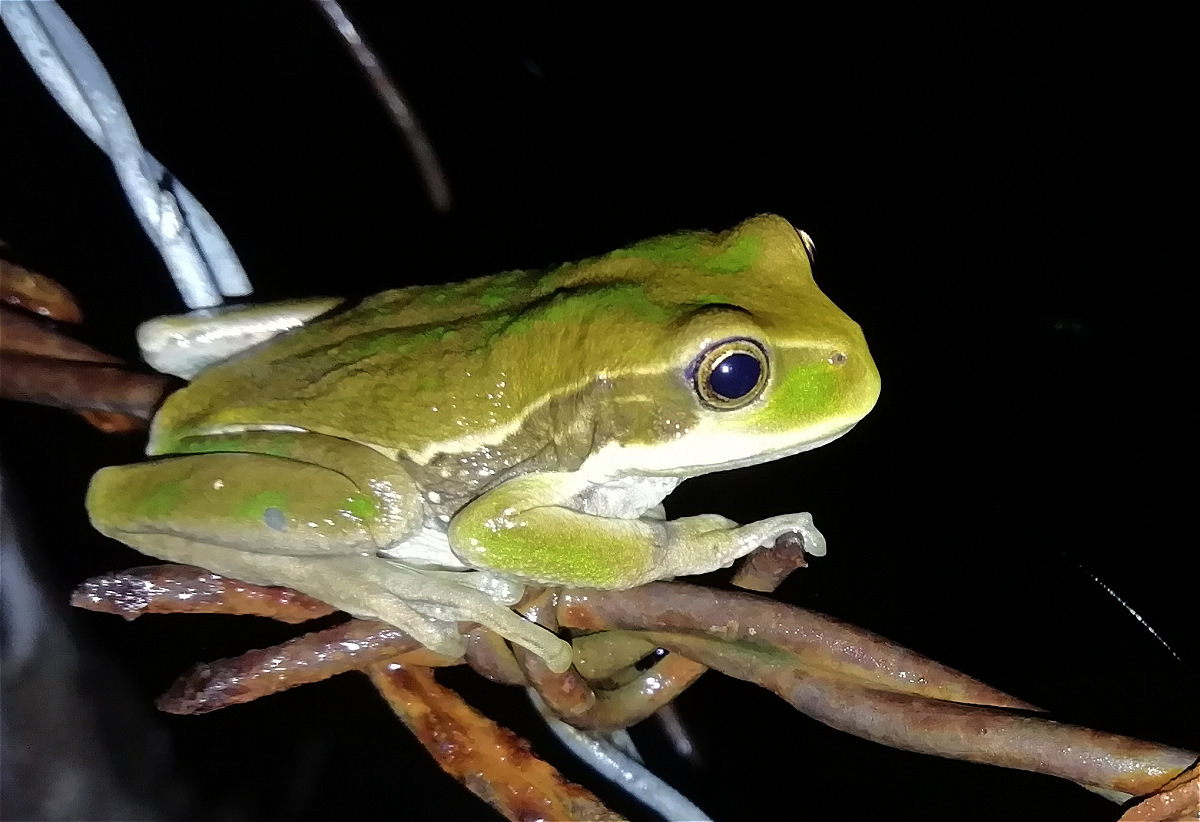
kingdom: Animalia
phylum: Chordata
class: Amphibia
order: Anura
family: Hemiphractidae
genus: Gastrotheca
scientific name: Gastrotheca cuencana
